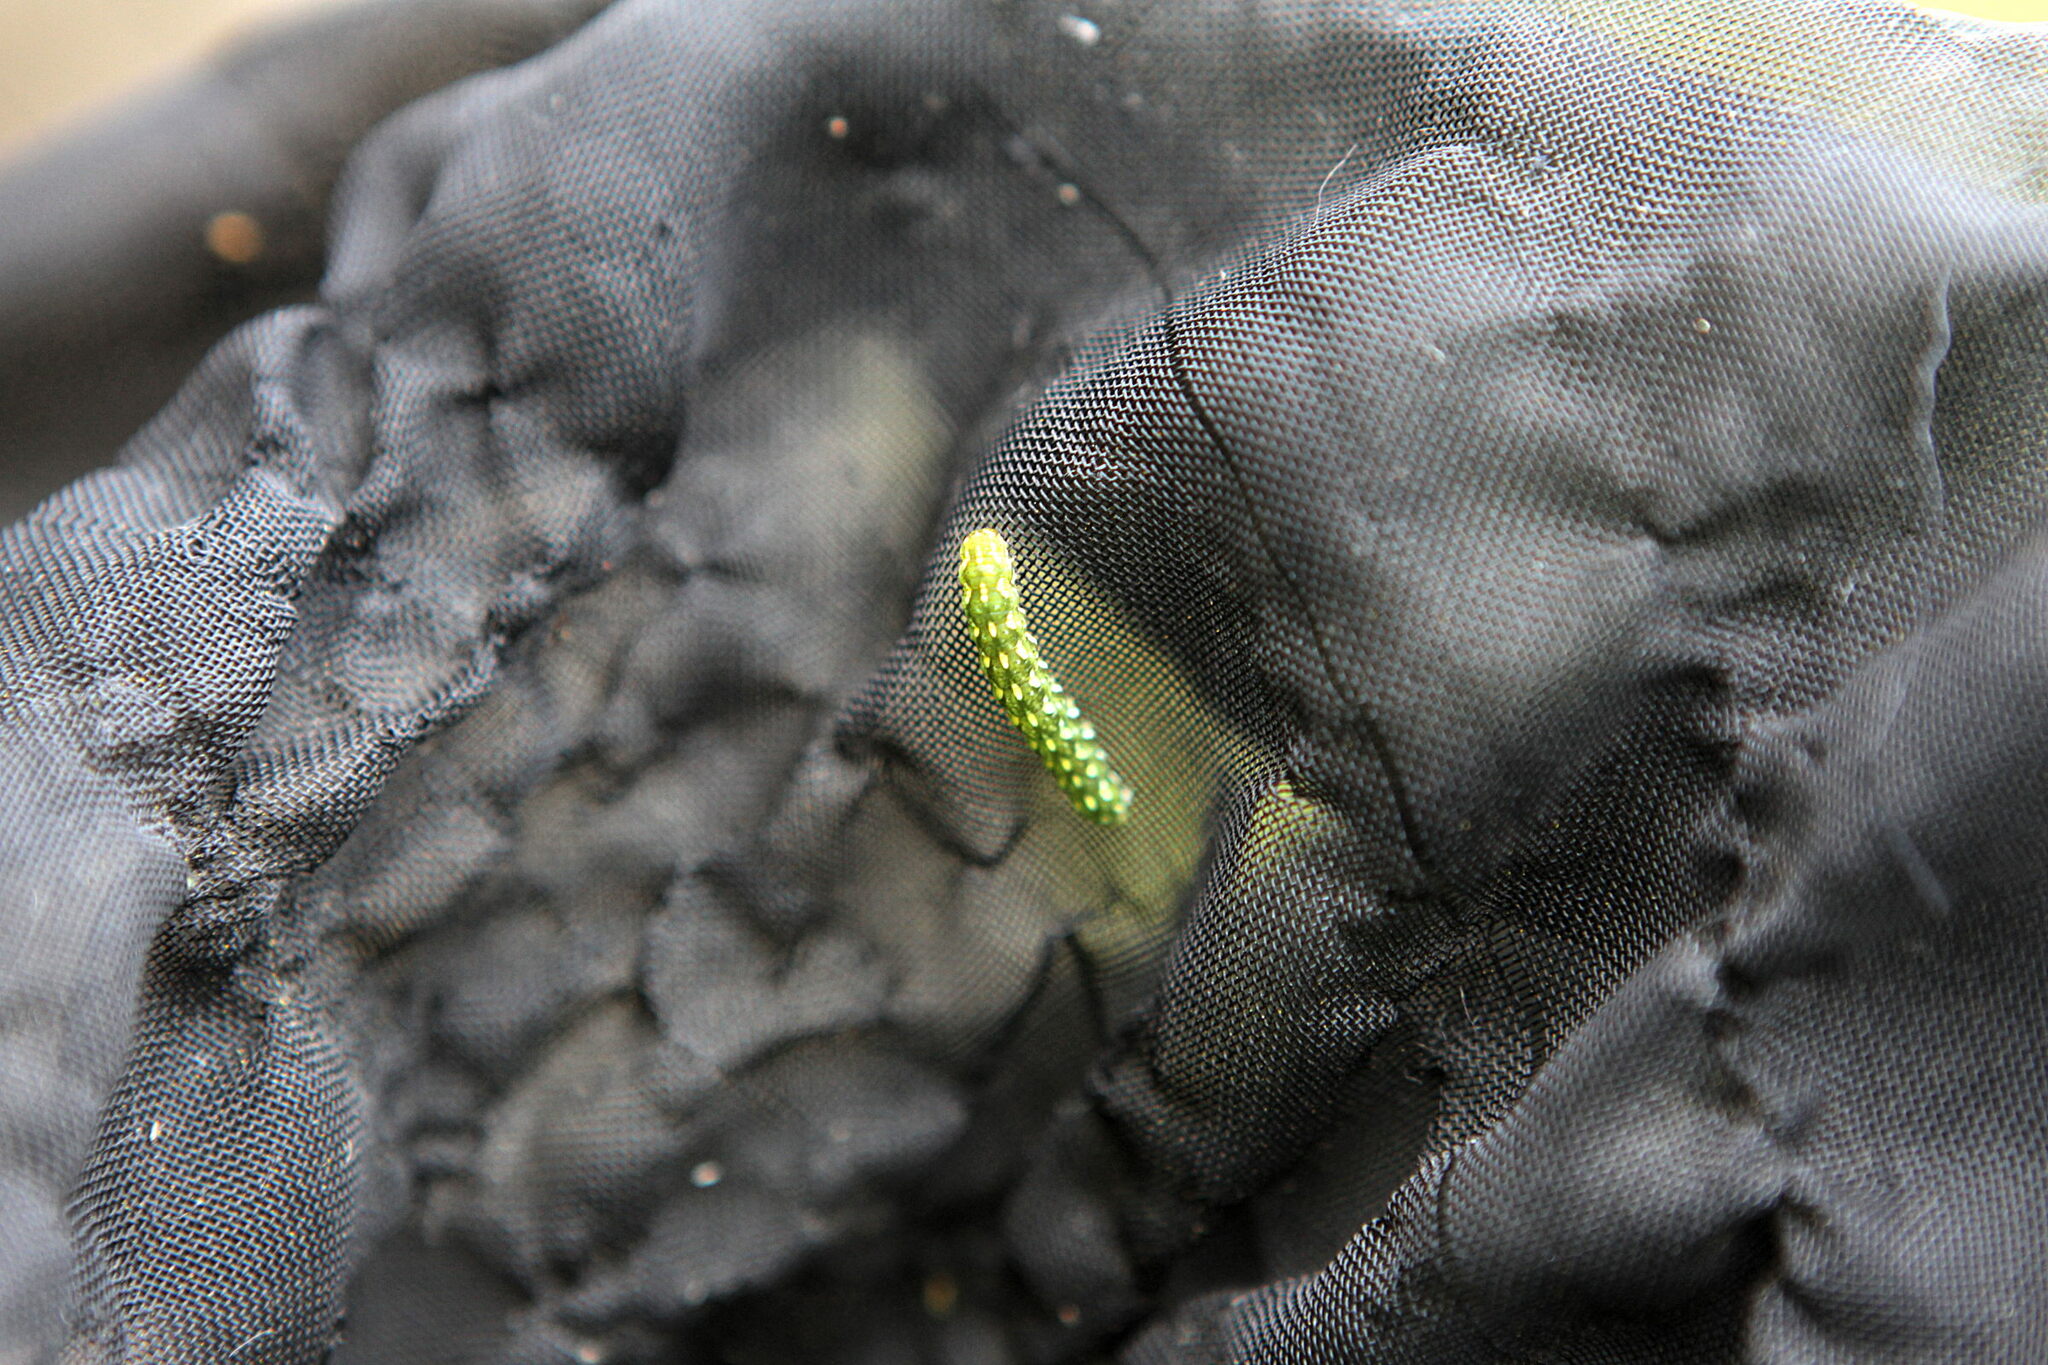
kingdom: Animalia
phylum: Arthropoda
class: Insecta
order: Lepidoptera
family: Noctuidae
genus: Anarta
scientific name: Anarta myrtilli
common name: Beautiful yellow underwing
